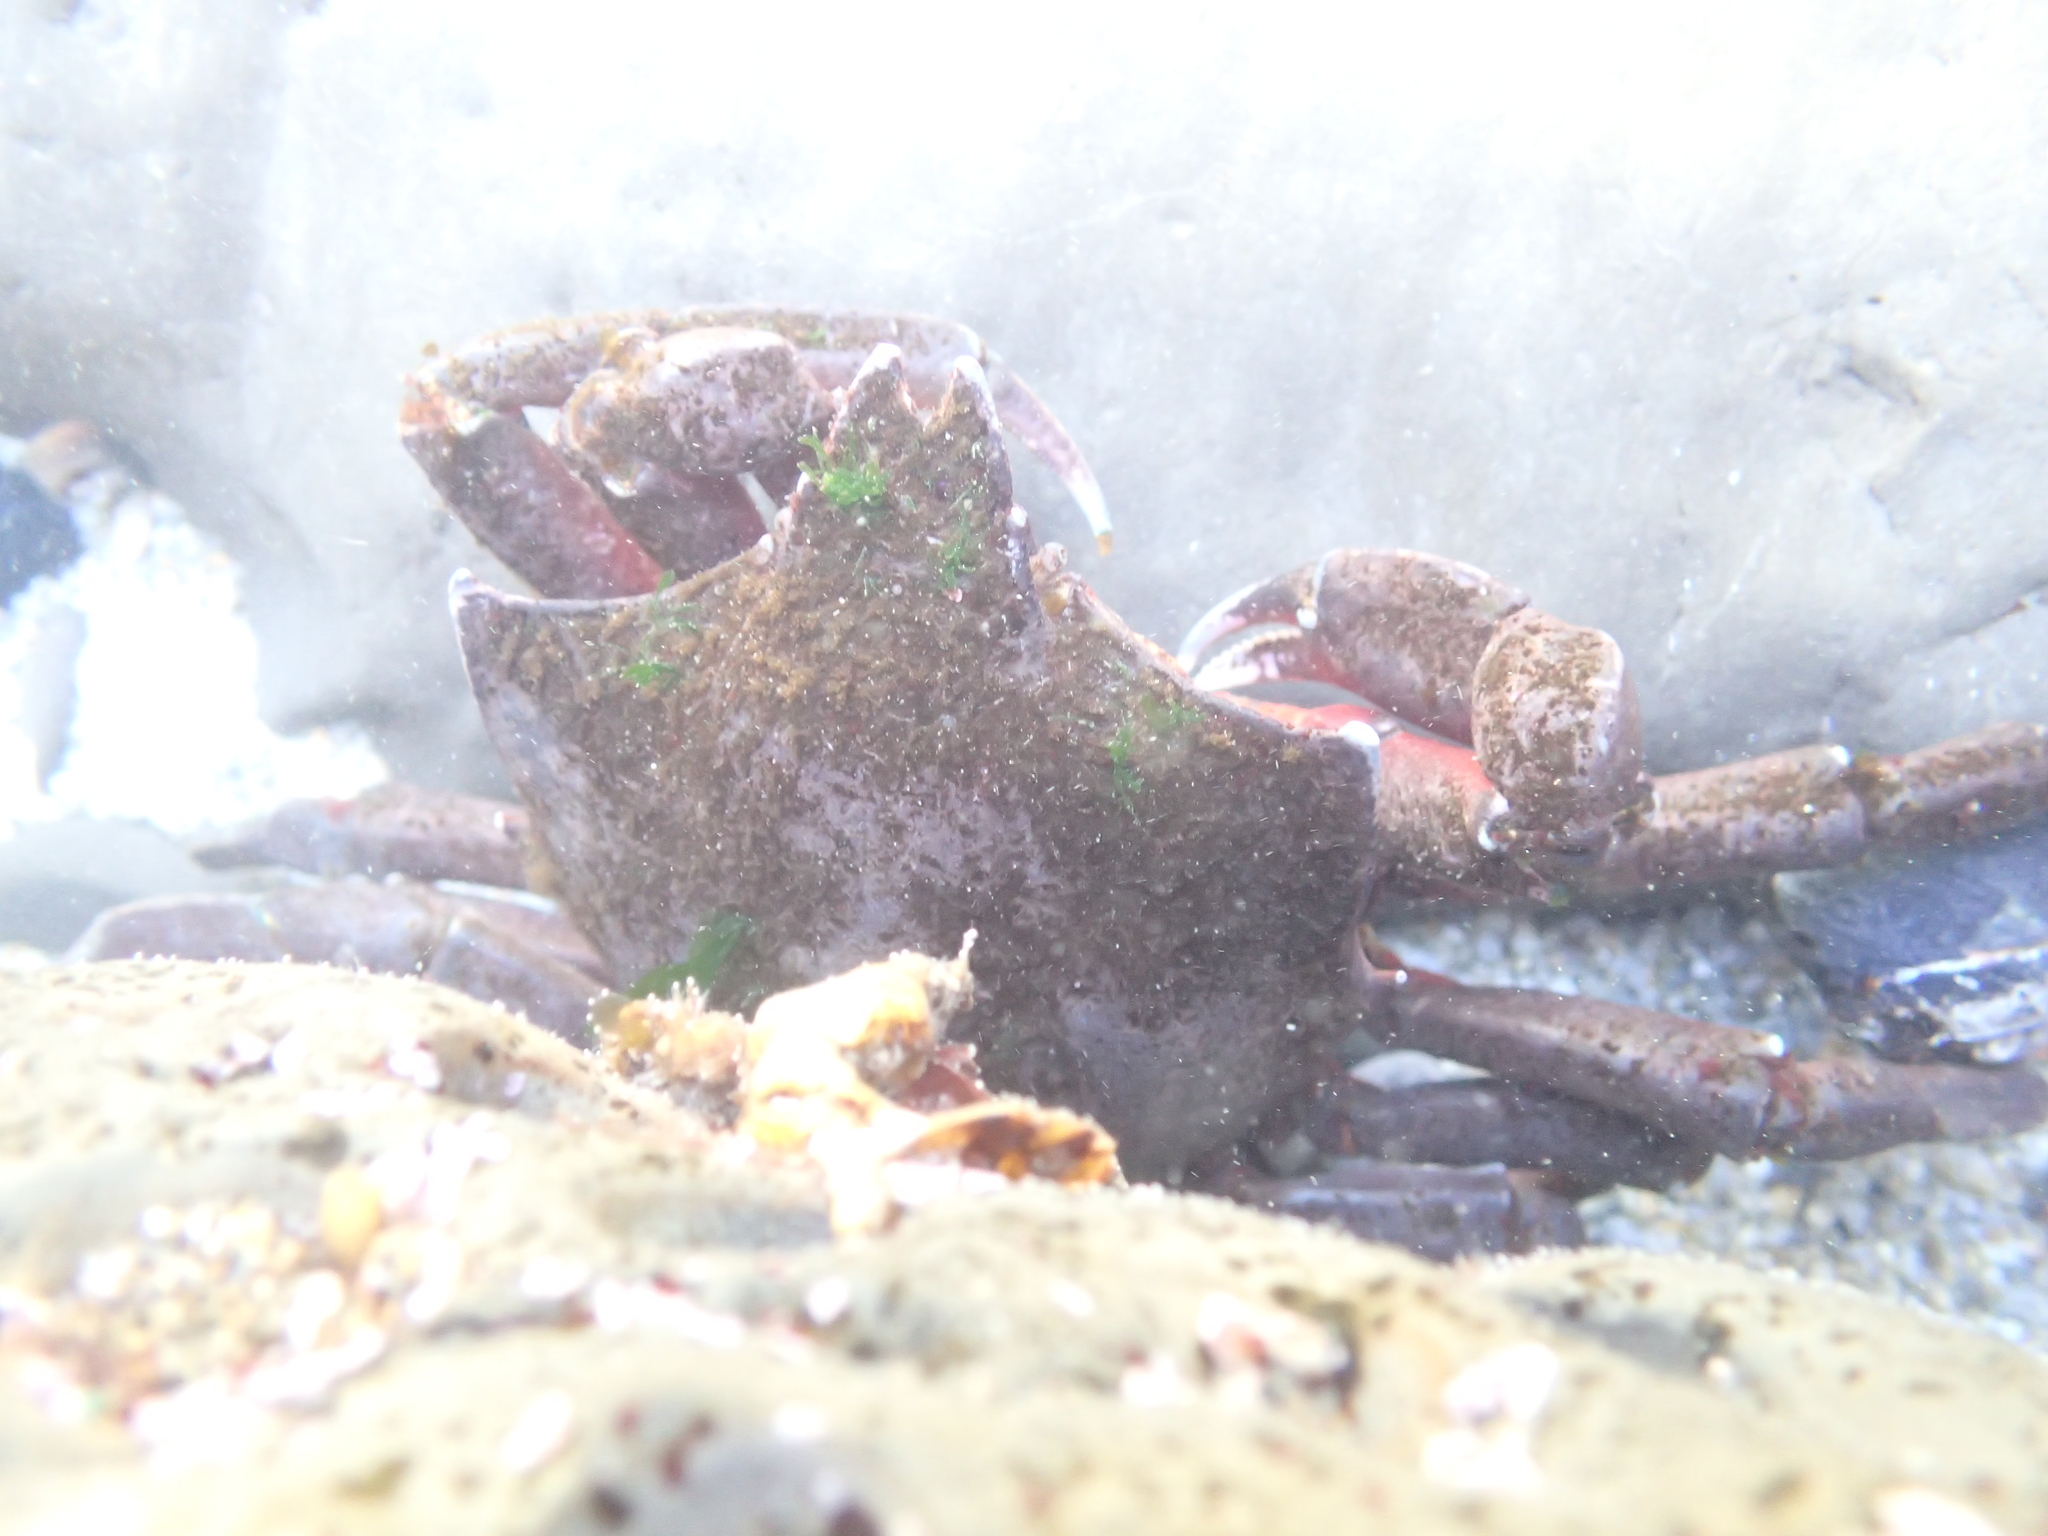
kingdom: Animalia
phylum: Arthropoda
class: Malacostraca
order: Decapoda
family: Epialtidae
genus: Pugettia
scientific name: Pugettia producta
